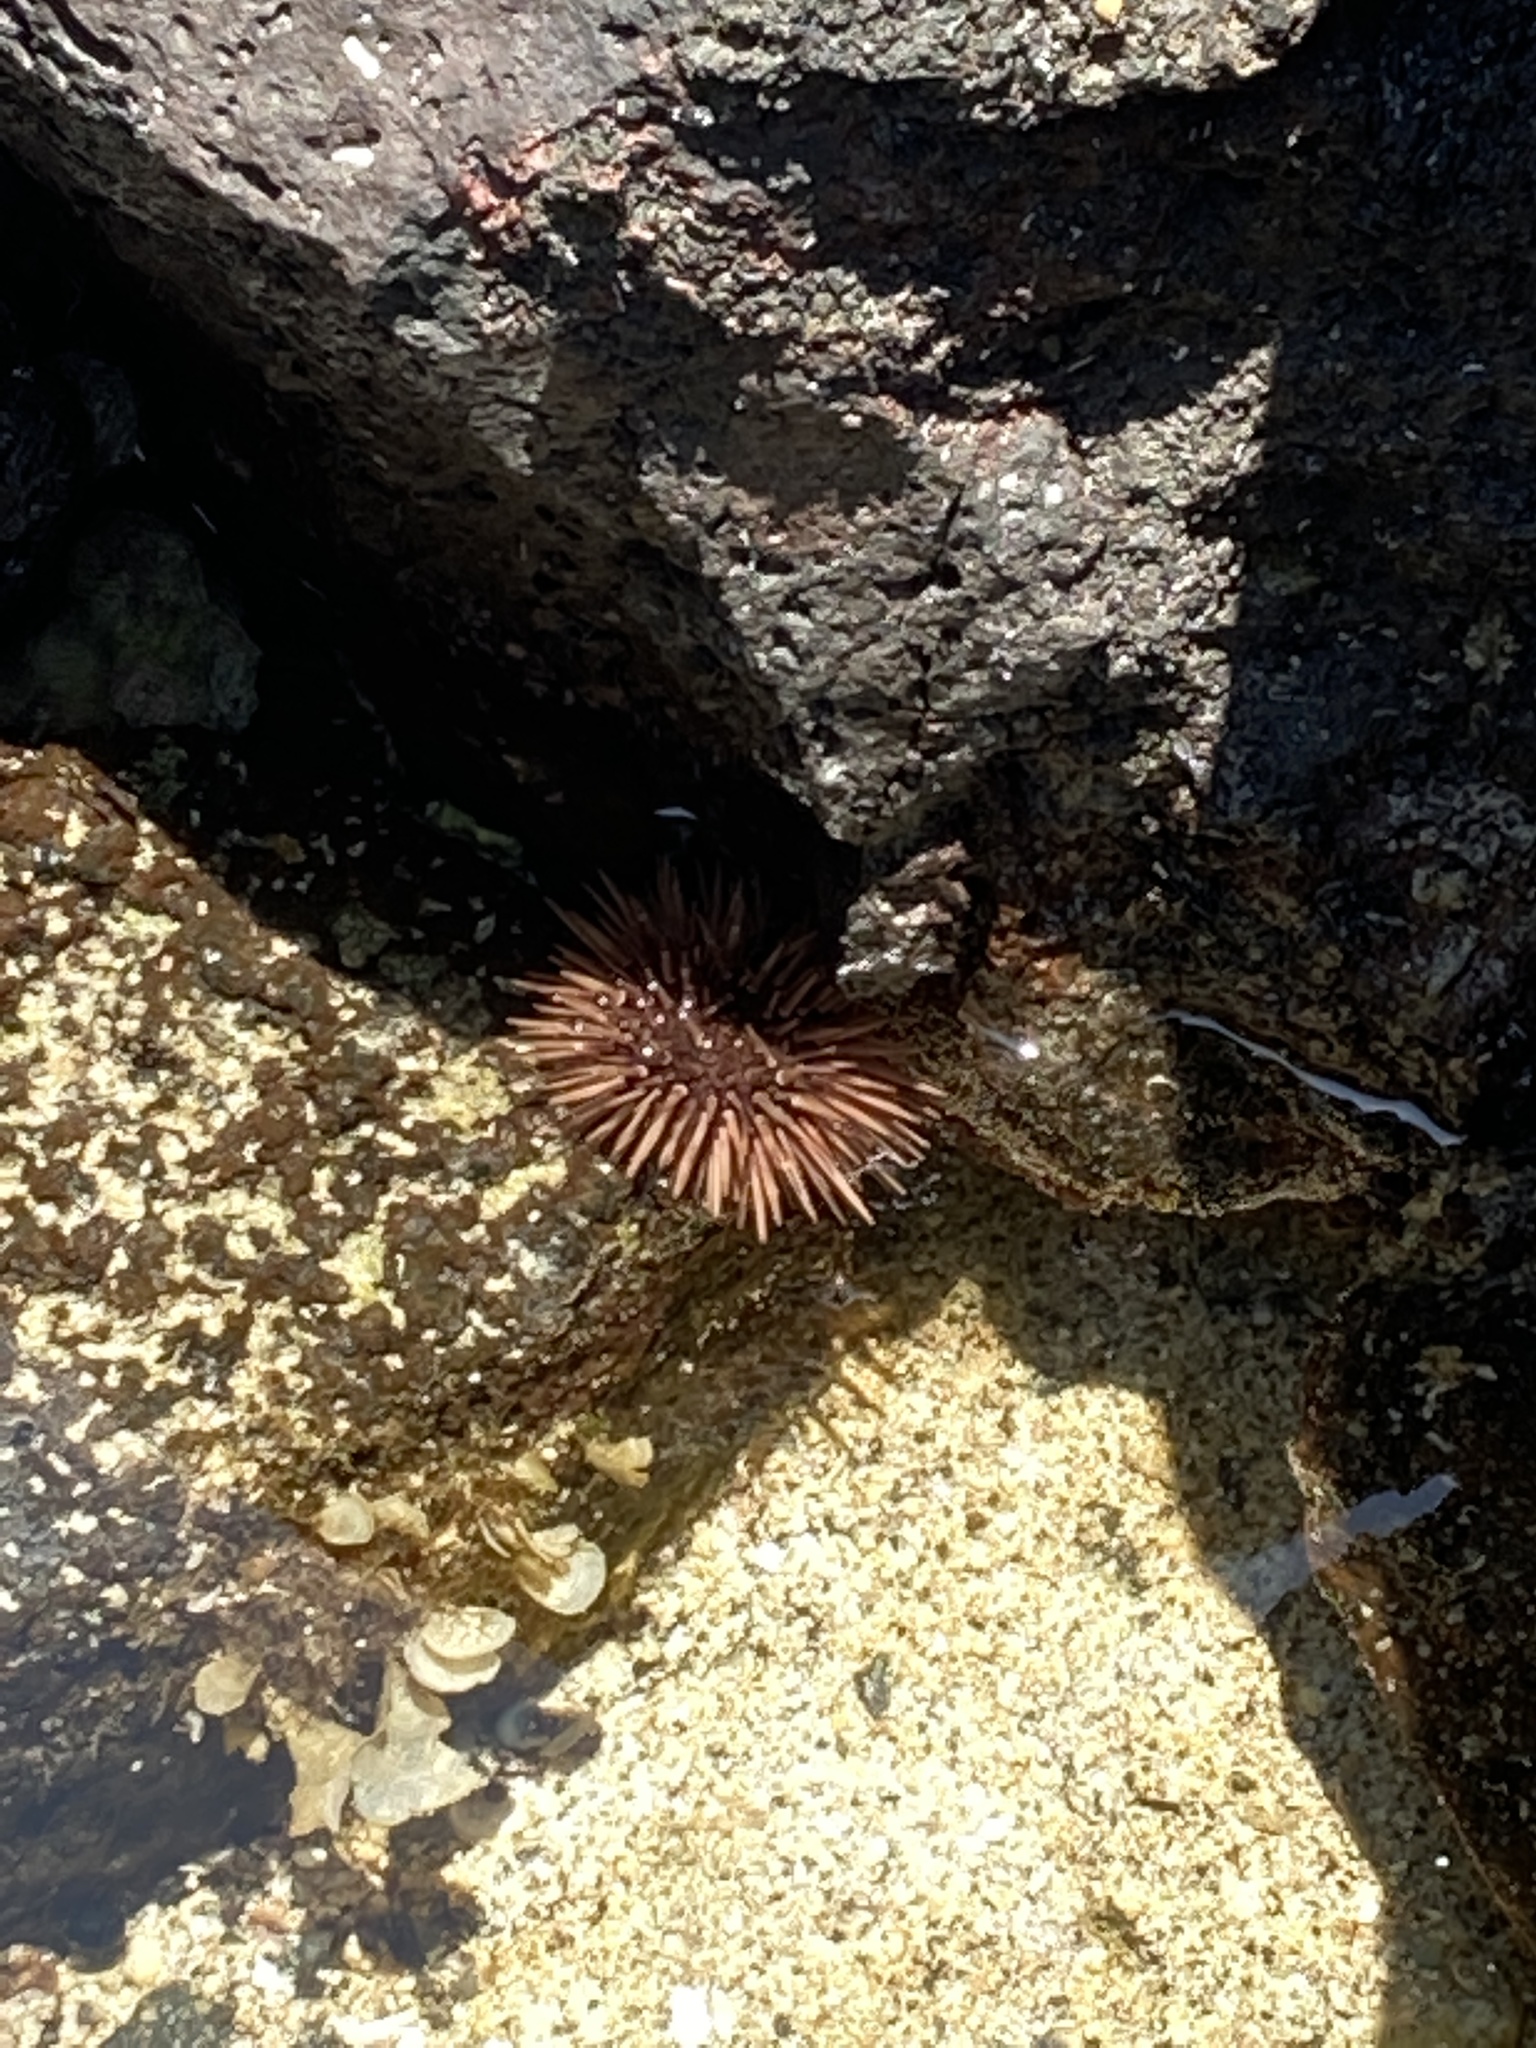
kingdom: Animalia
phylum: Echinodermata
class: Echinoidea
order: Camarodonta
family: Echinometridae
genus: Echinometra
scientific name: Echinometra mathaei
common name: Rock-boring urchin
